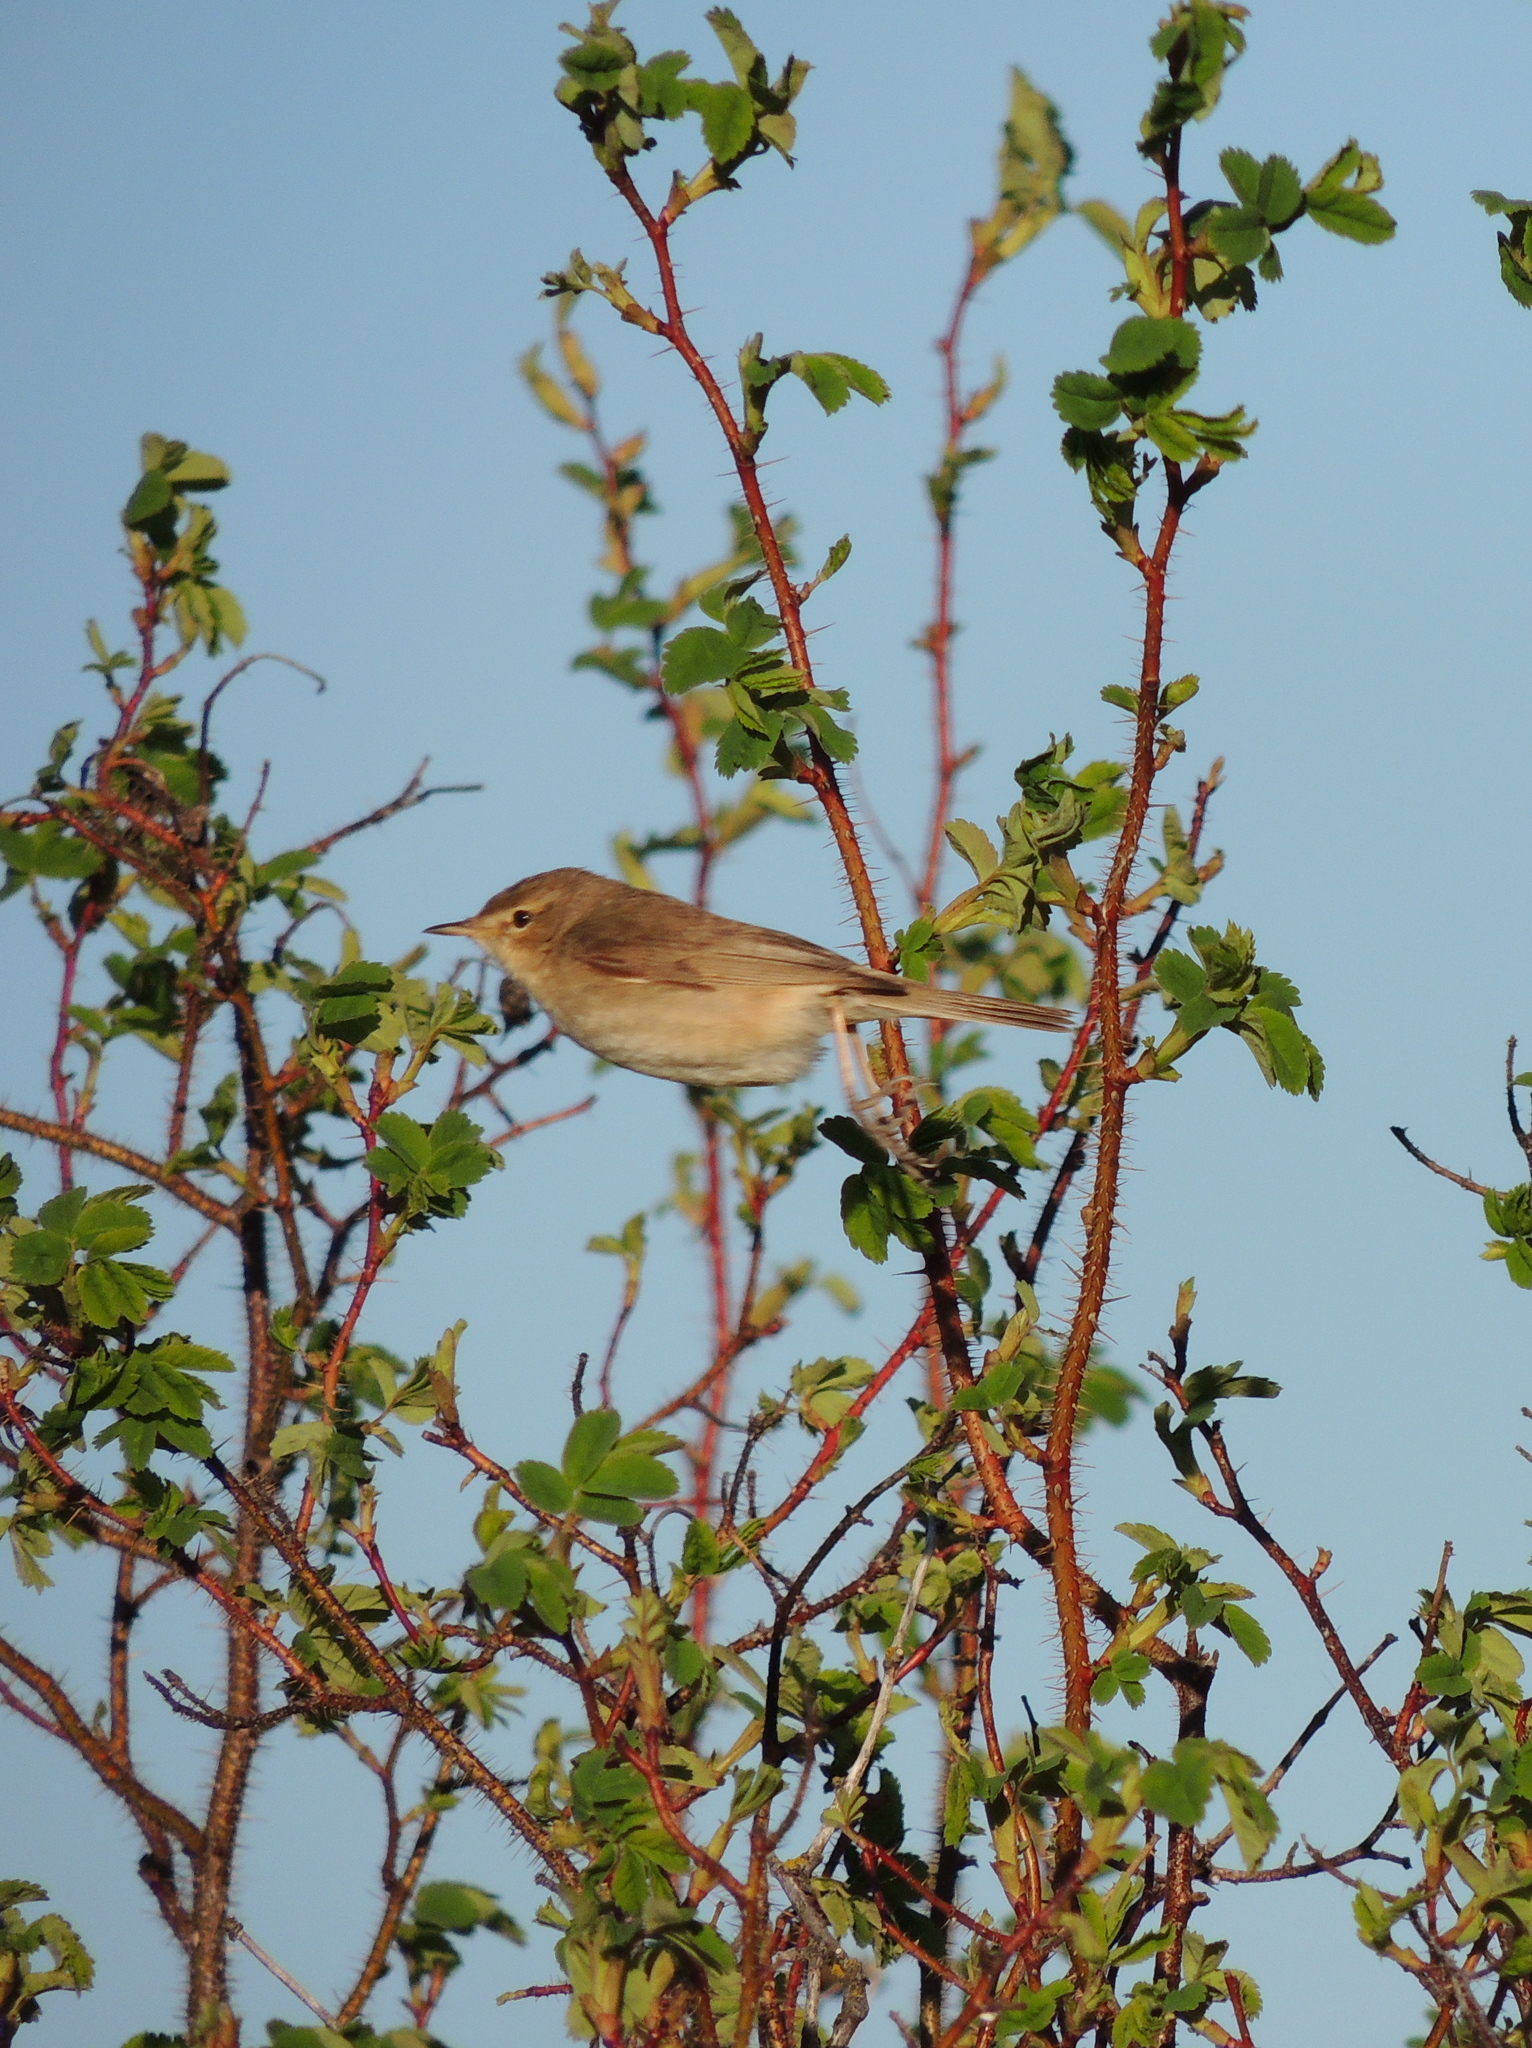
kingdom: Animalia
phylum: Chordata
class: Aves
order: Passeriformes
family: Acrocephalidae
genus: Iduna
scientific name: Iduna caligata
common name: Booted warbler
